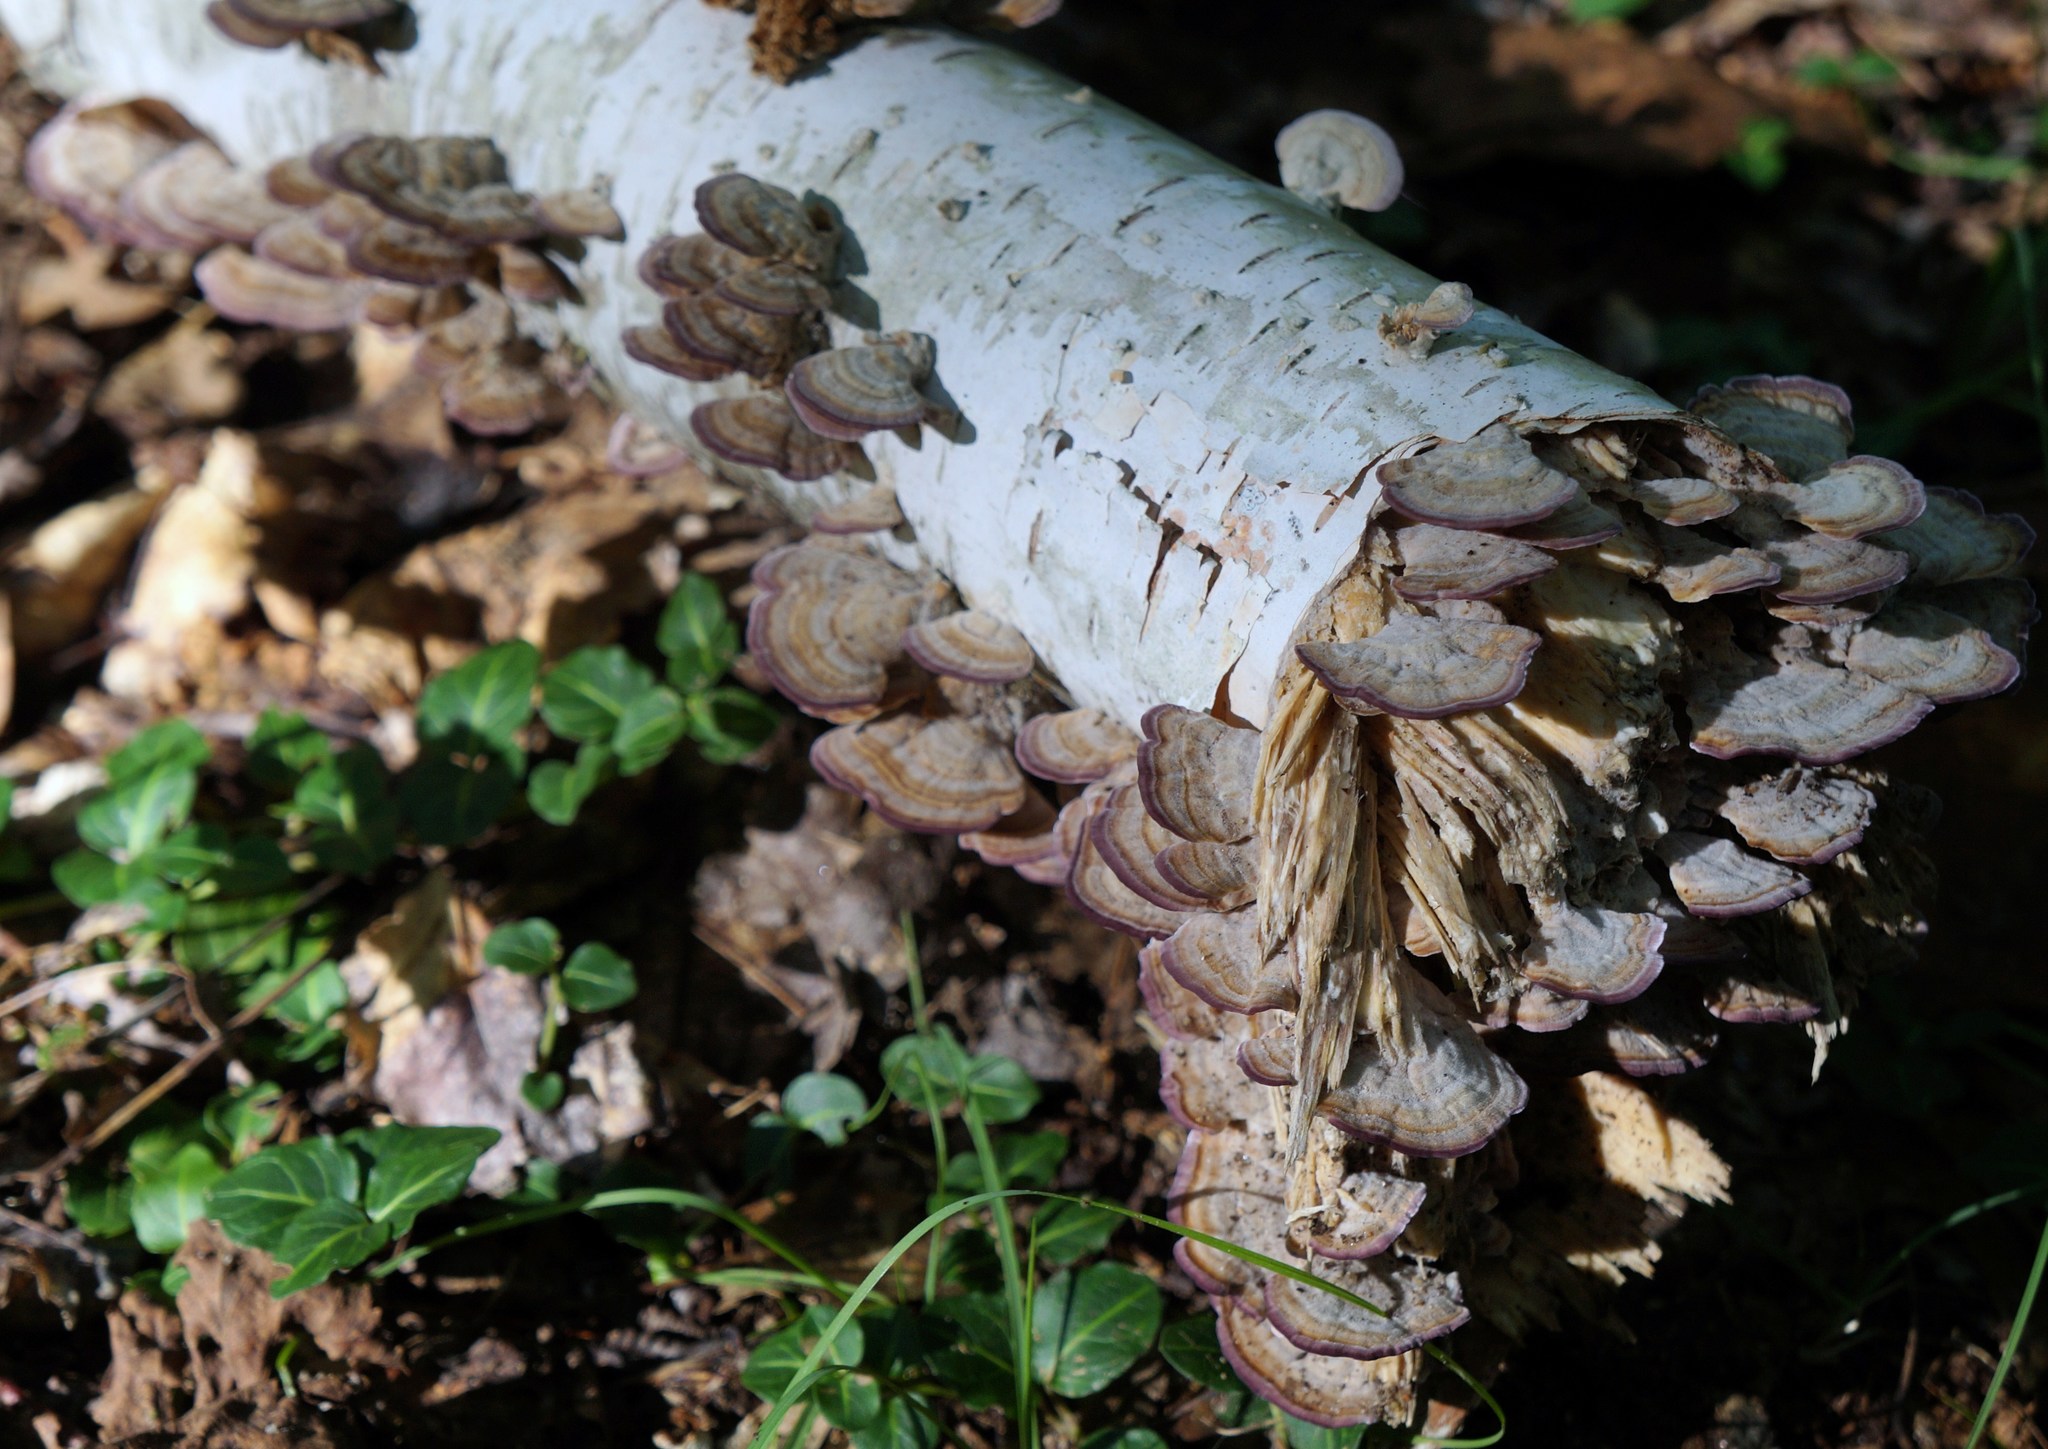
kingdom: Fungi
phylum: Basidiomycota
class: Agaricomycetes
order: Hymenochaetales
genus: Trichaptum
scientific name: Trichaptum biforme
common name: Violet-toothed polypore
